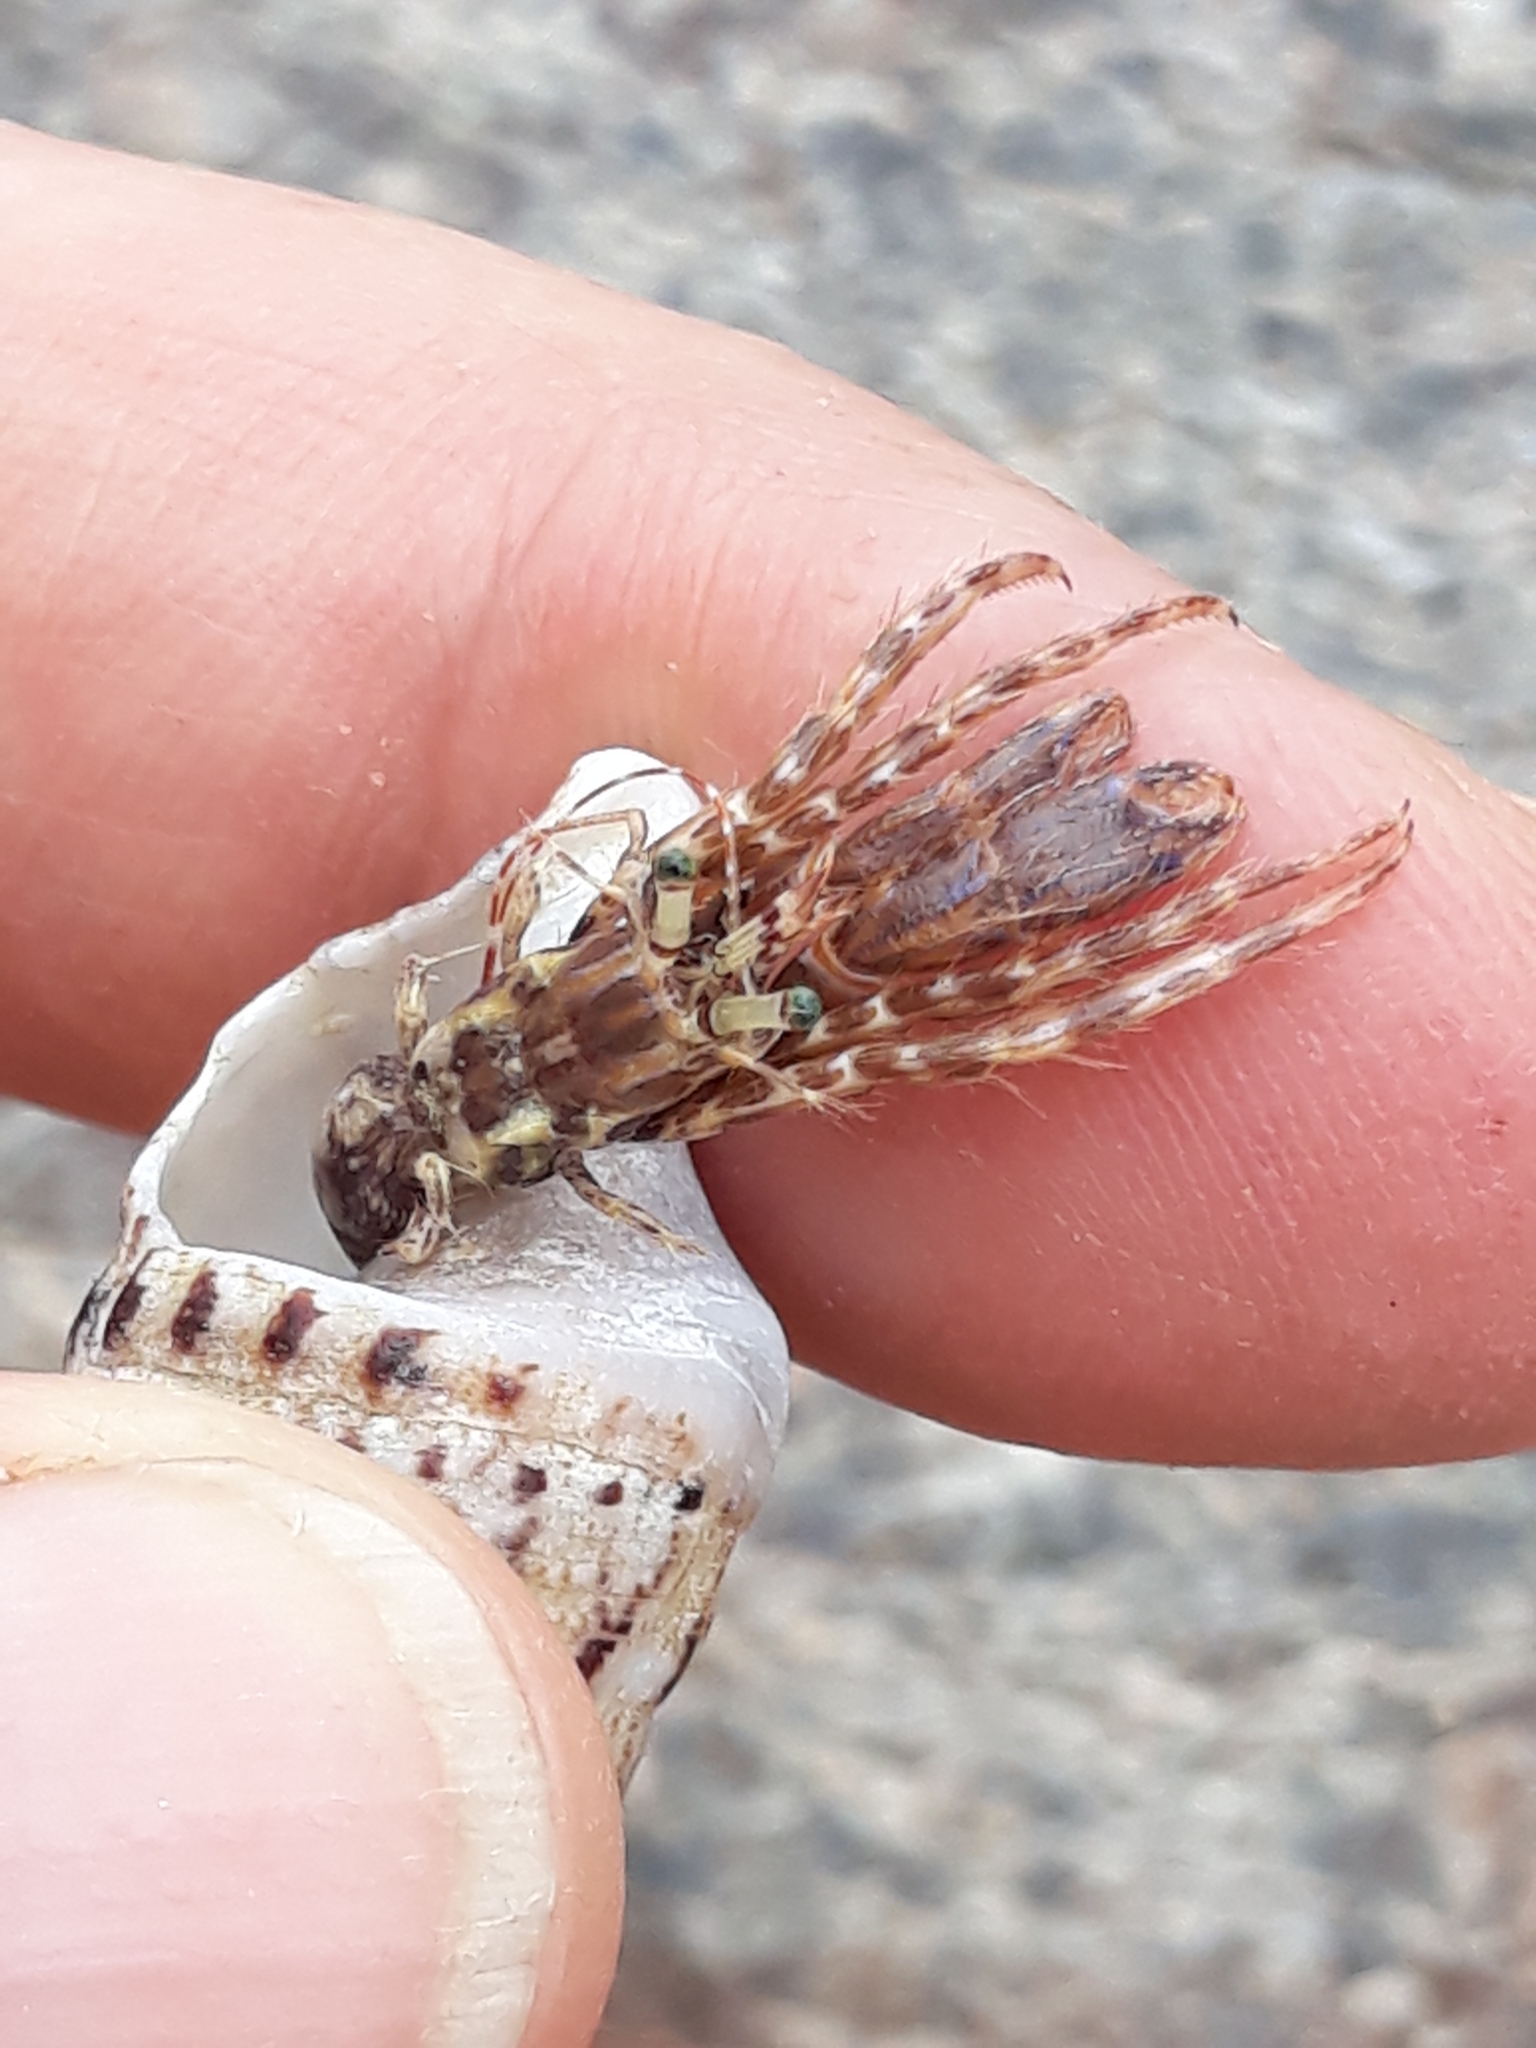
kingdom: Animalia
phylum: Arthropoda
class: Malacostraca
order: Decapoda
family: Paguridae
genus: Pagurus
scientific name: Pagurus anachoretus
